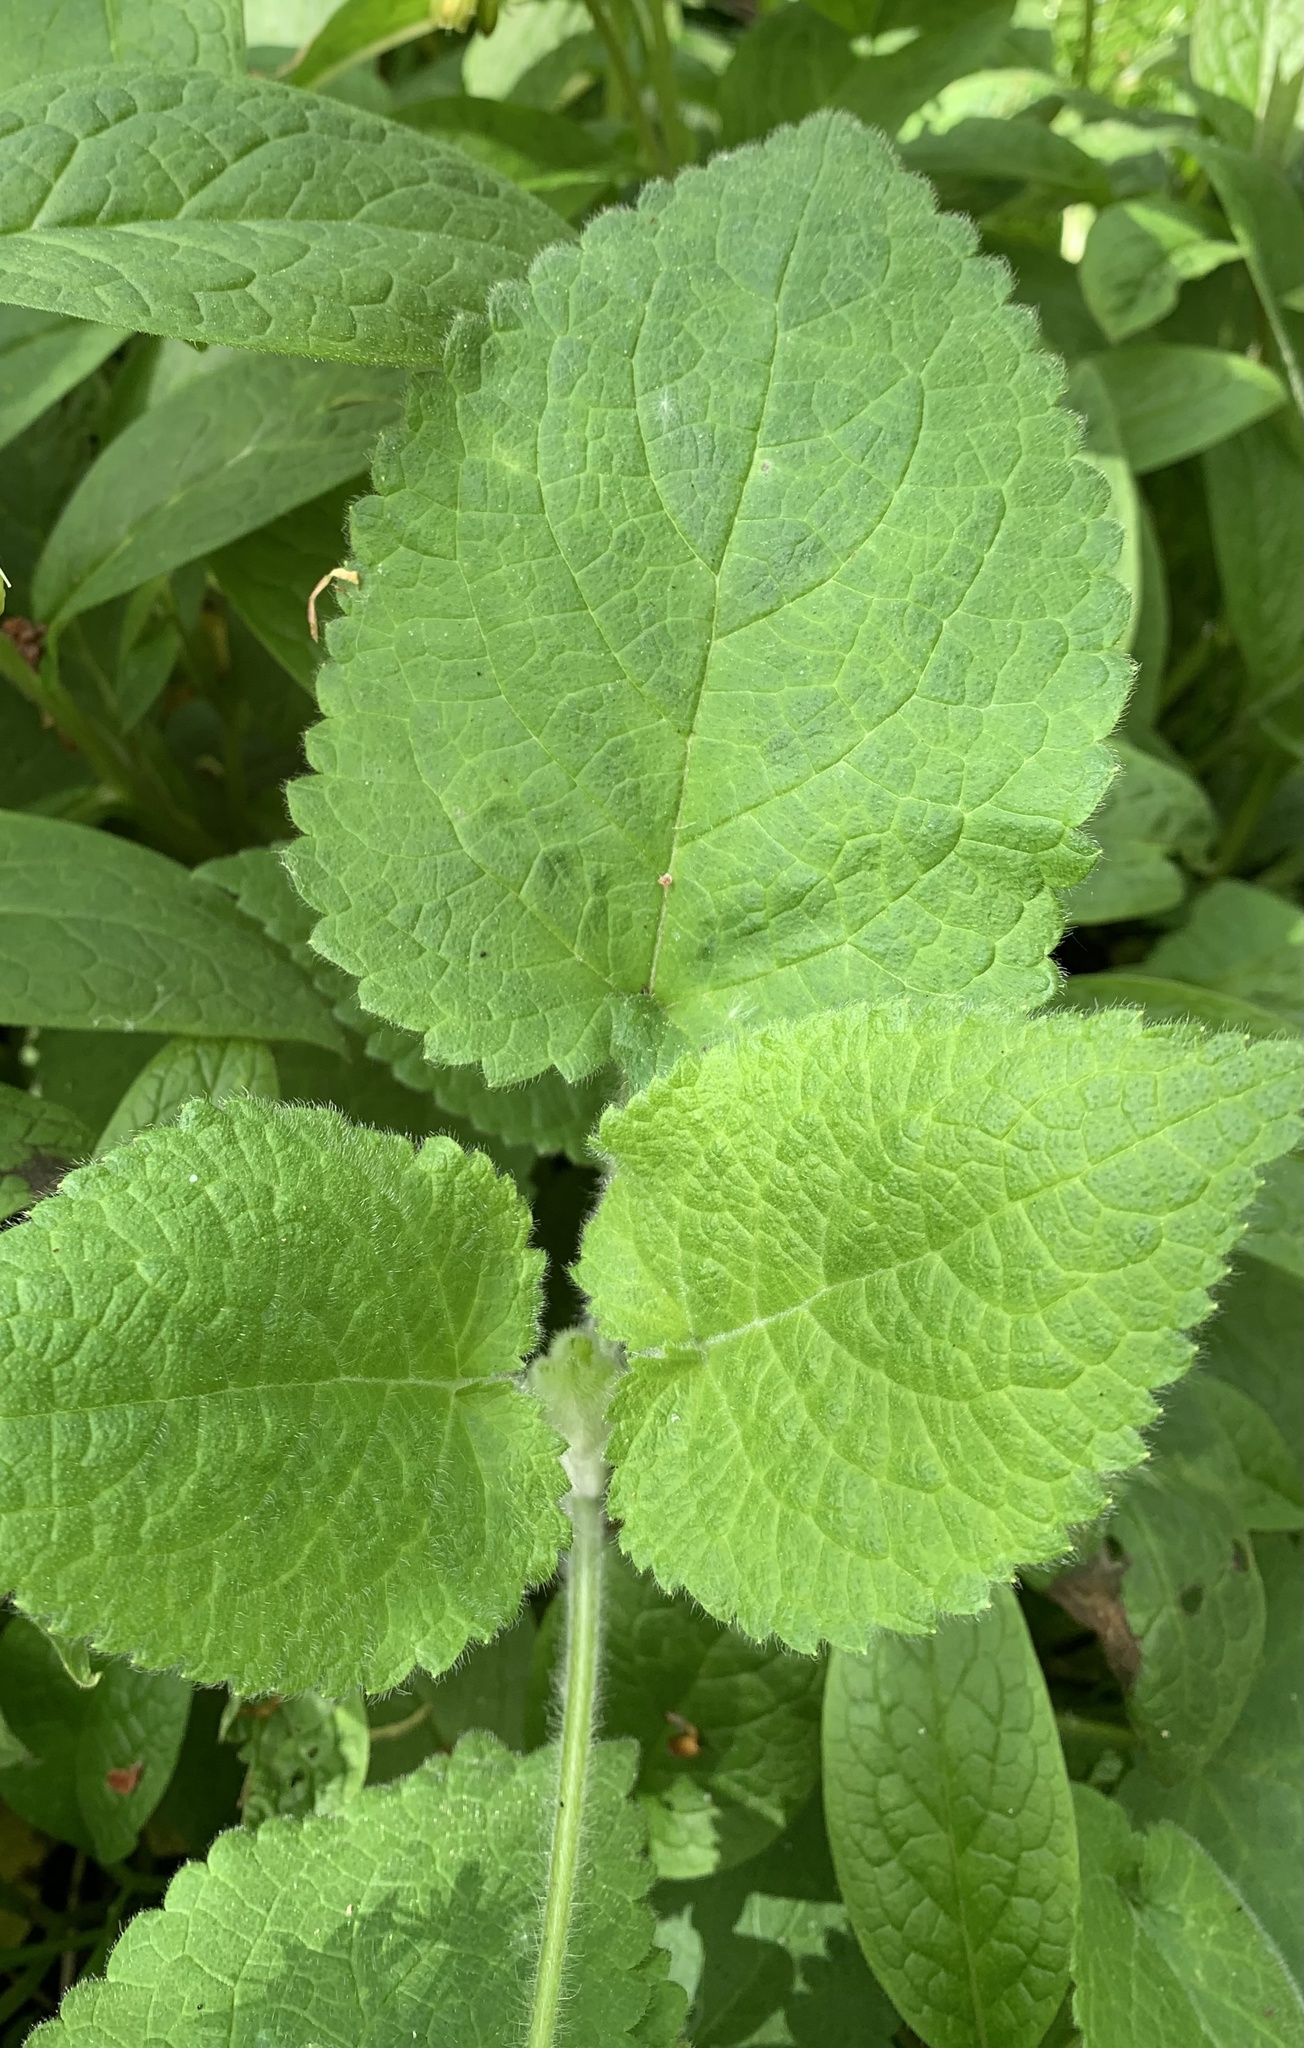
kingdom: Plantae
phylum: Tracheophyta
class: Magnoliopsida
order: Lamiales
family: Lamiaceae
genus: Stachys
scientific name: Stachys sylvatica
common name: Hedge woundwort
